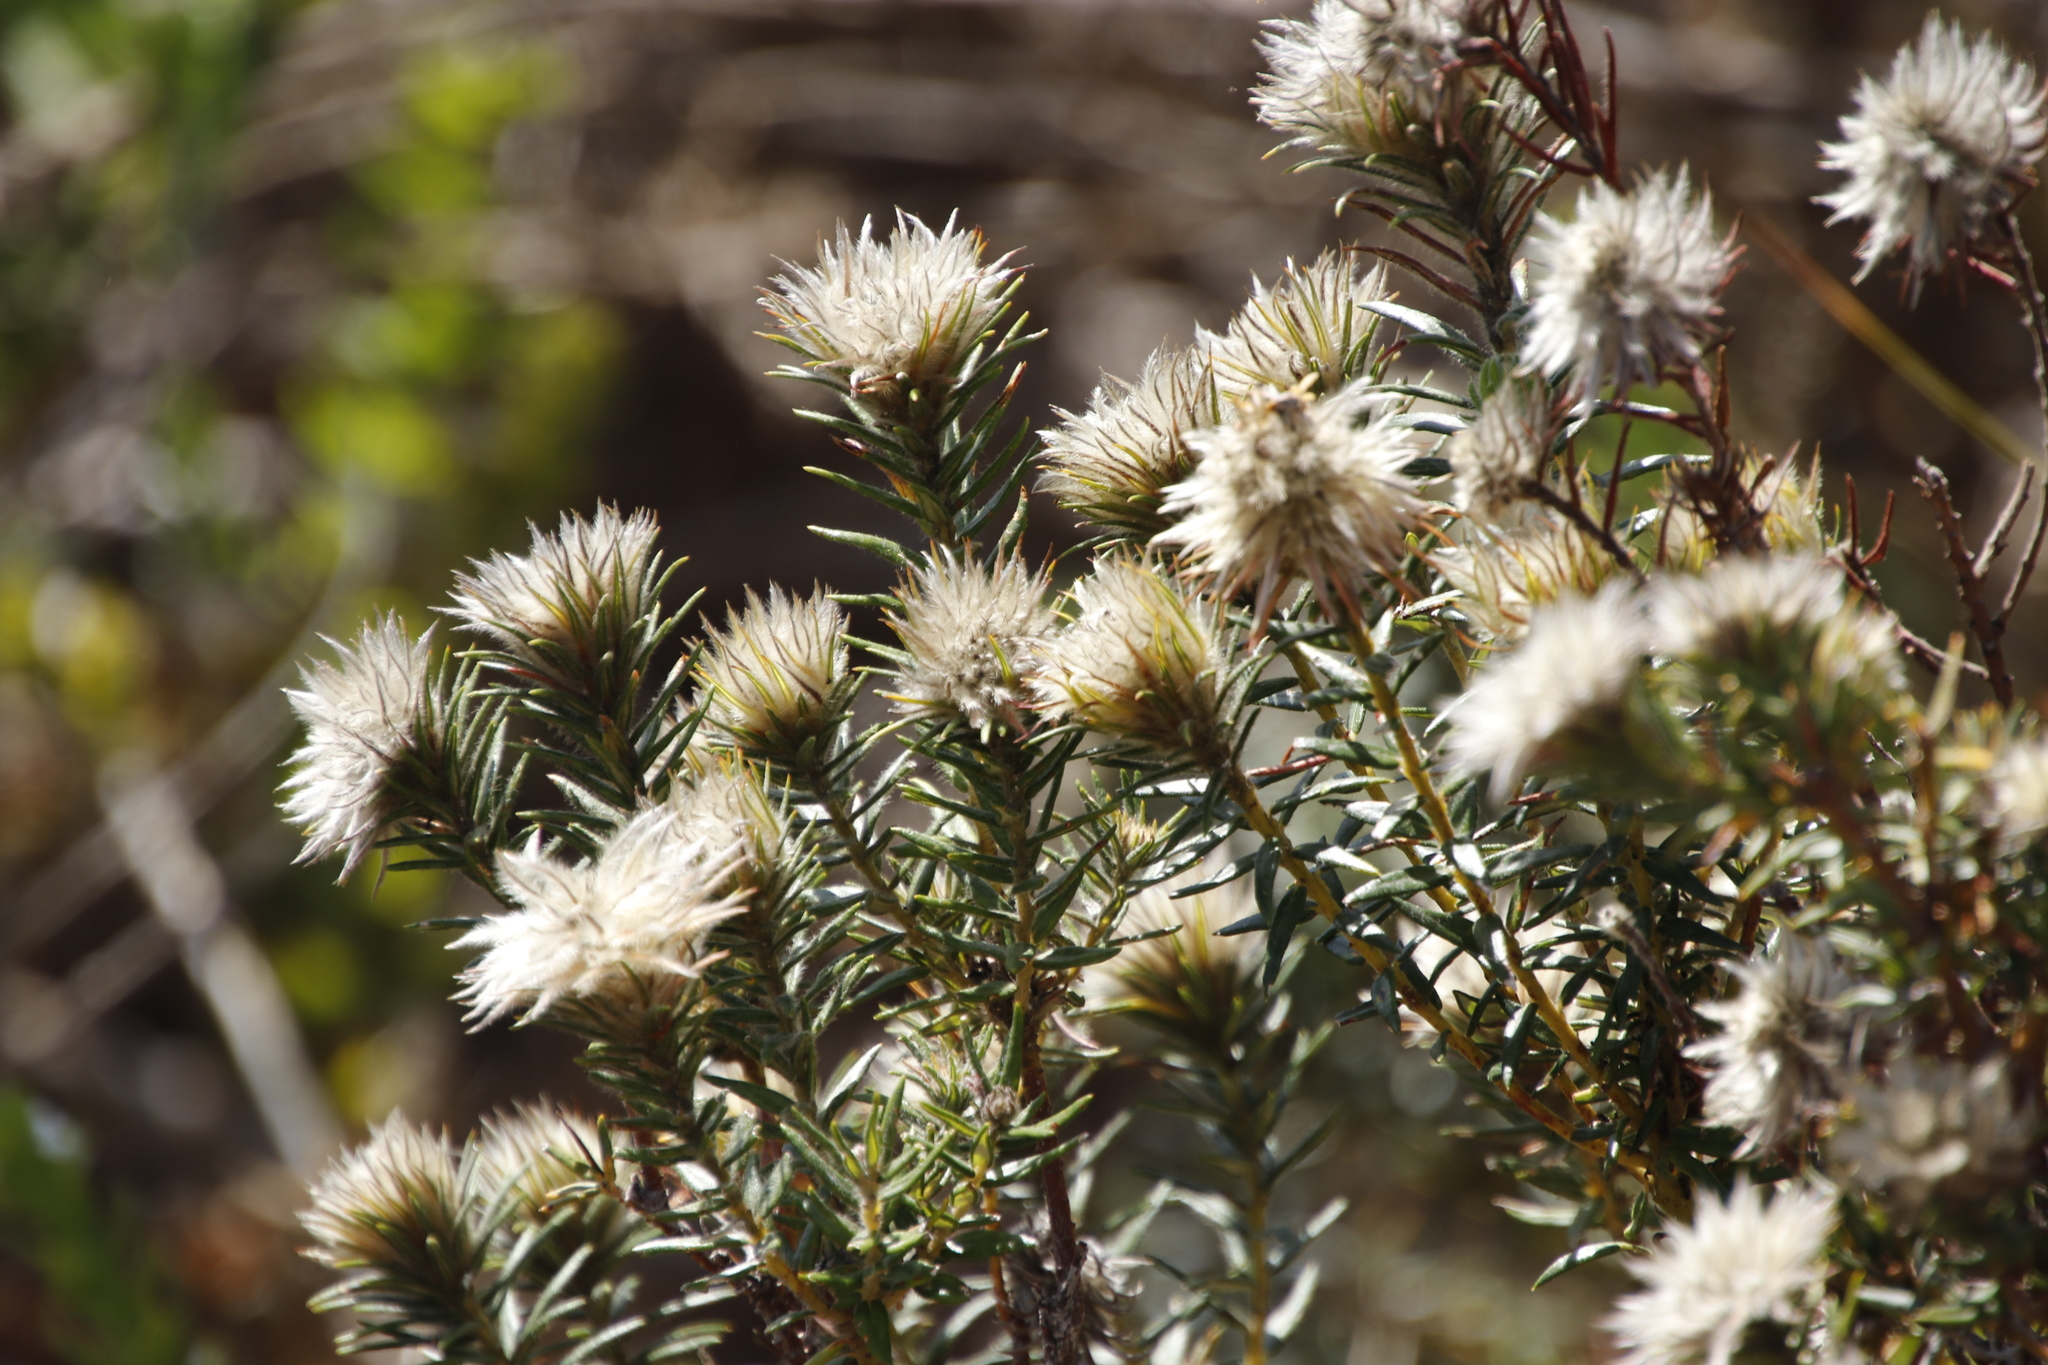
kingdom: Plantae
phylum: Tracheophyta
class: Magnoliopsida
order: Rosales
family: Rhamnaceae
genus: Phylica
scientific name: Phylica pubescens
